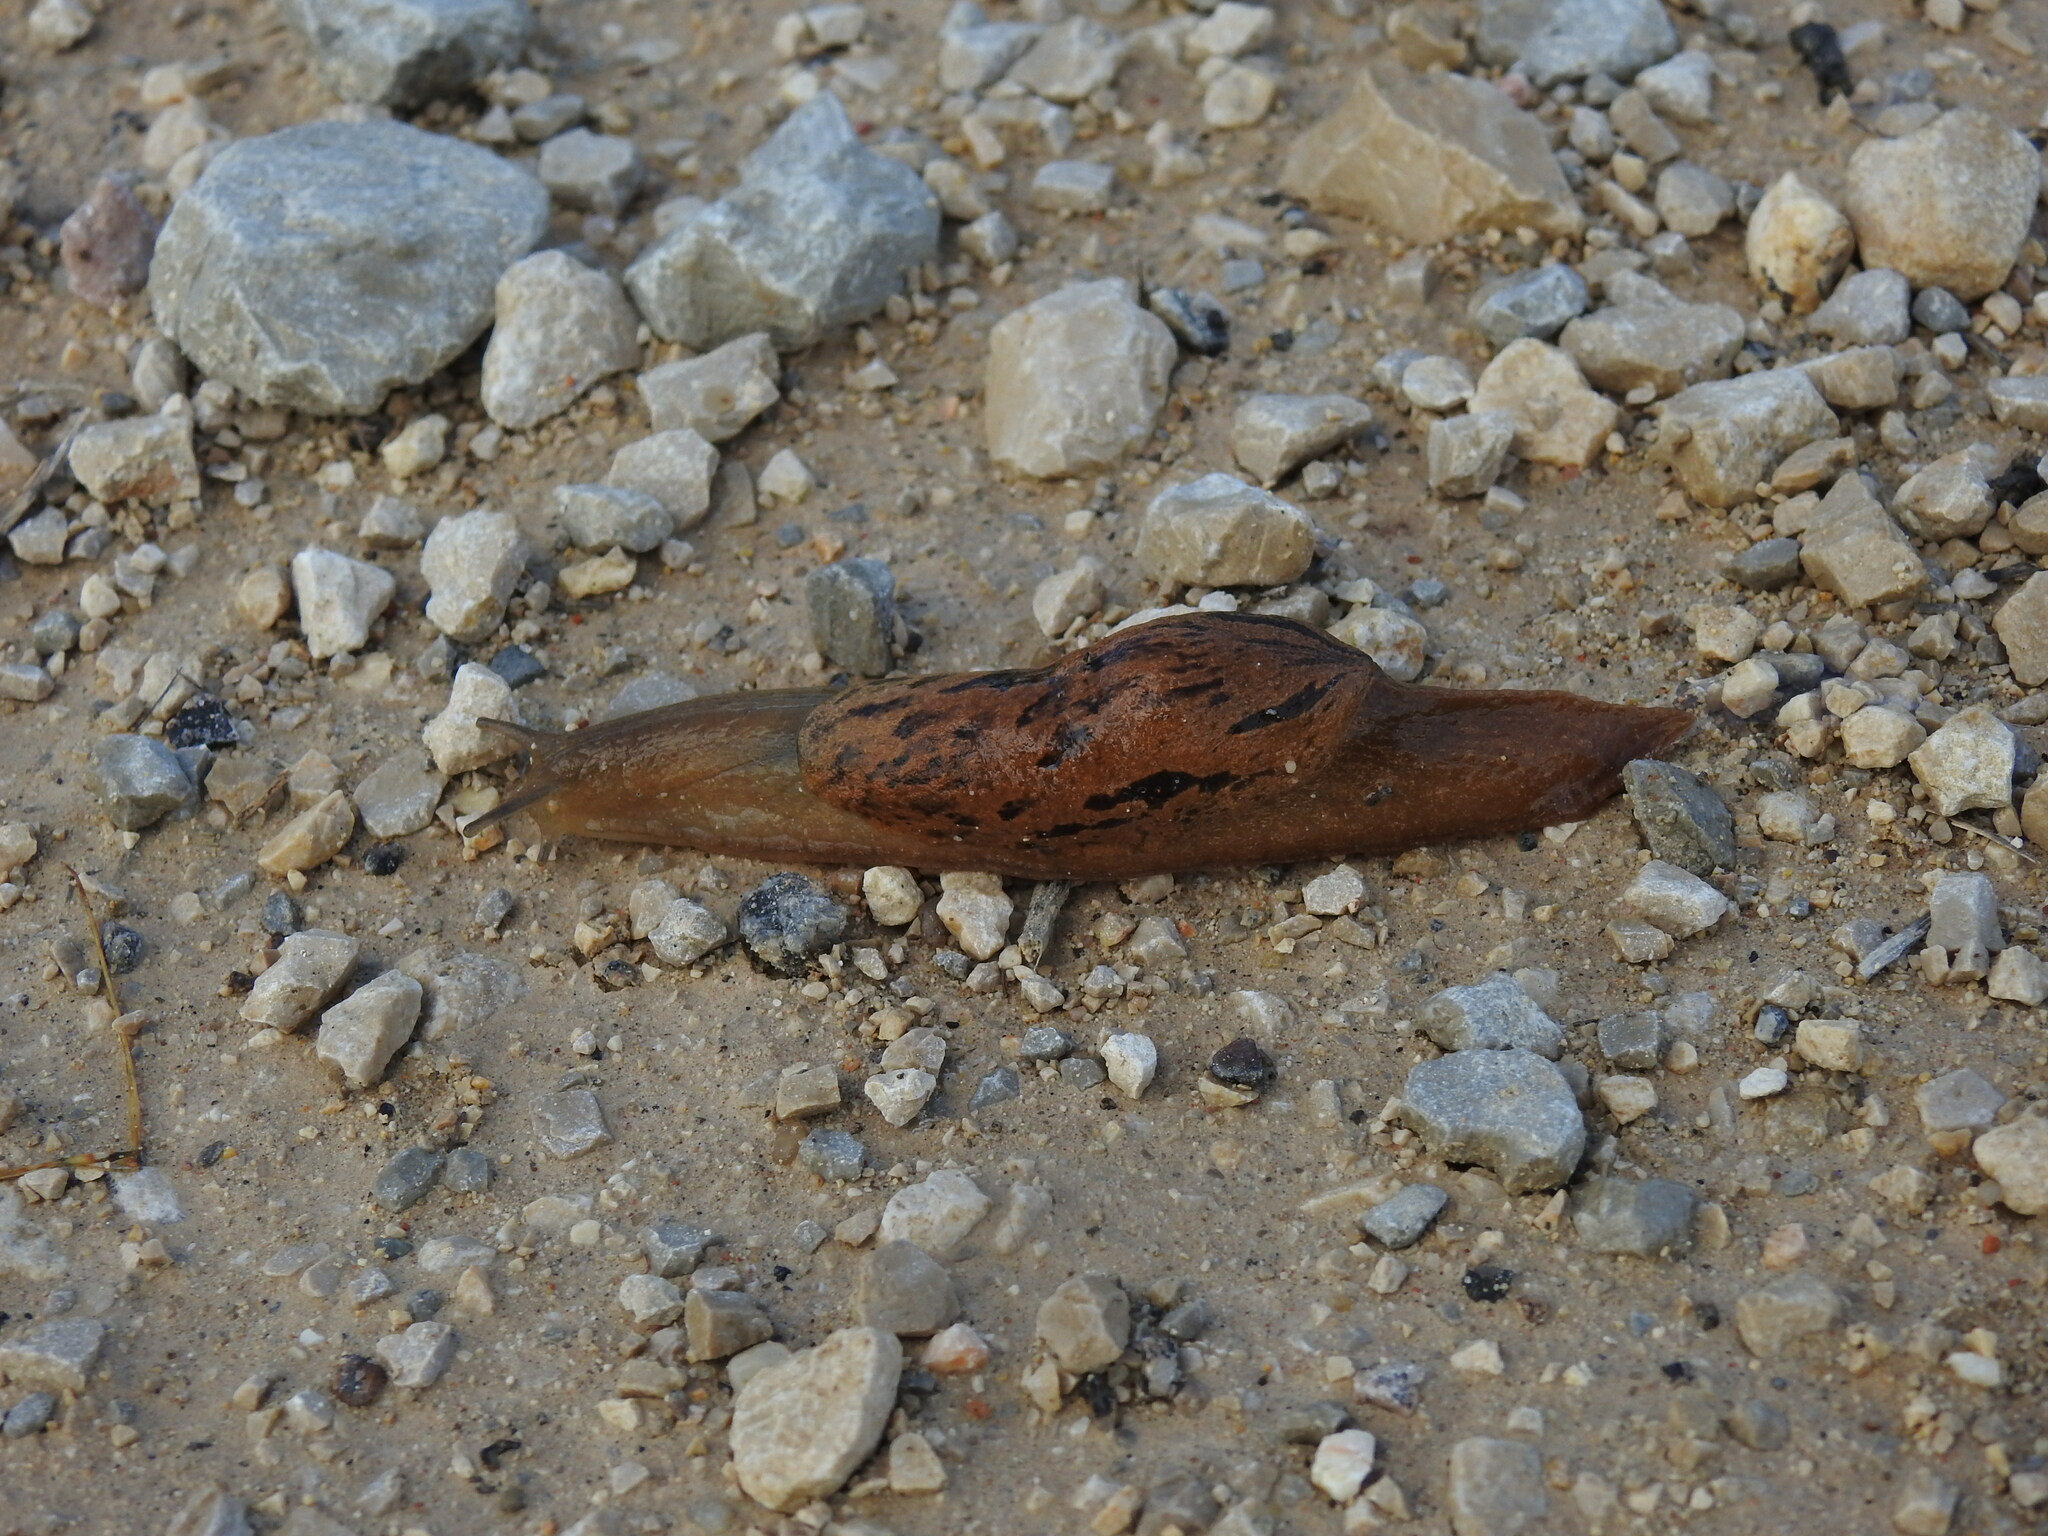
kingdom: Animalia
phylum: Mollusca
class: Gastropoda
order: Stylommatophora
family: Parmacellidae
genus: Drusia
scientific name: Drusia valenciennii
